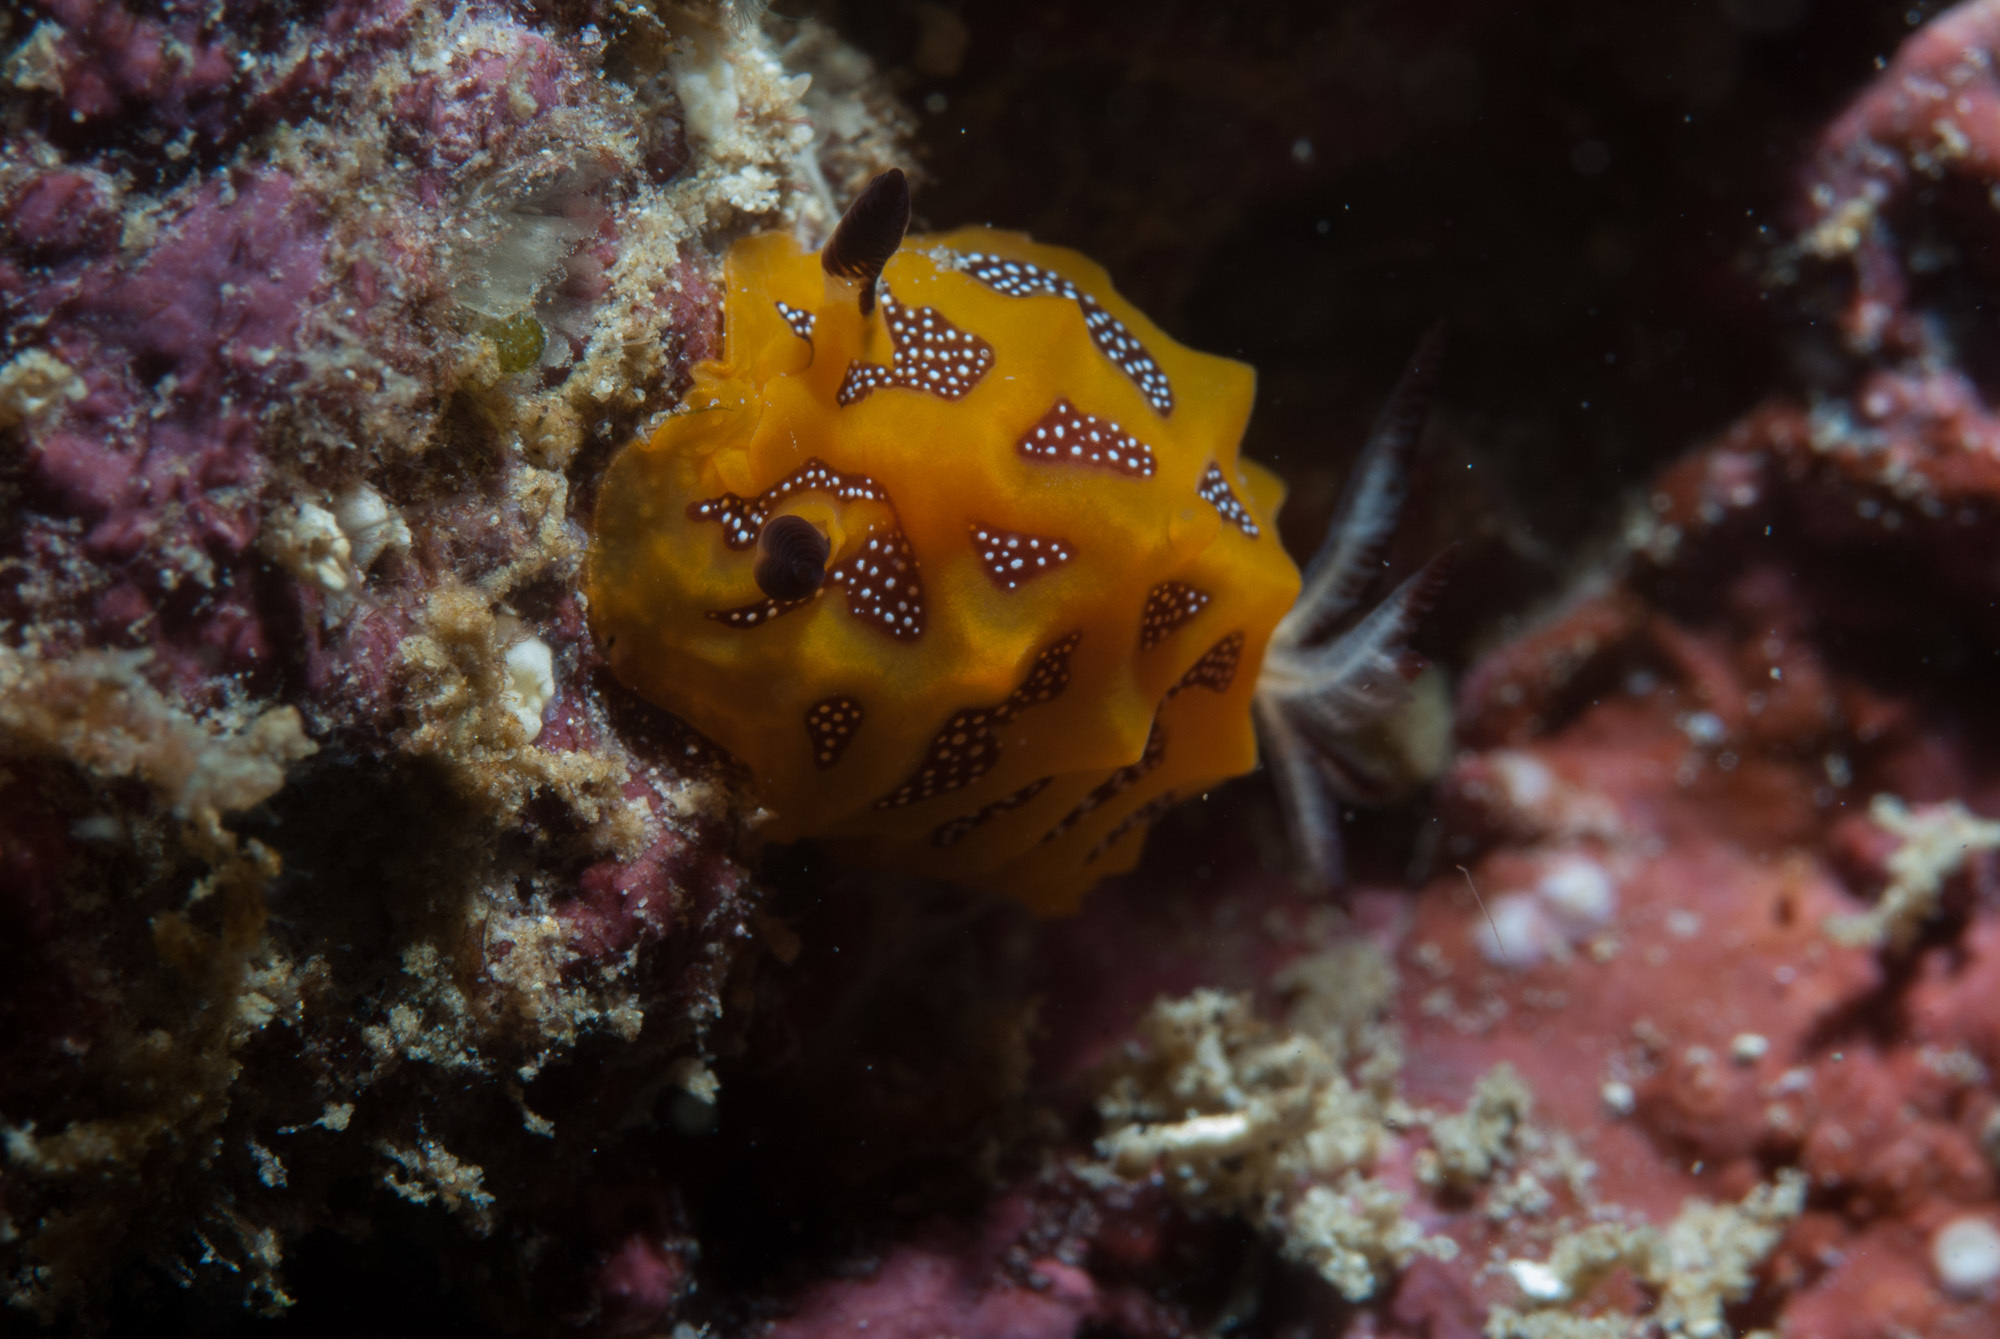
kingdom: Animalia
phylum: Mollusca
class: Gastropoda
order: Nudibranchia
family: Discodorididae
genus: Halgerda
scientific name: Halgerda indotessellata
